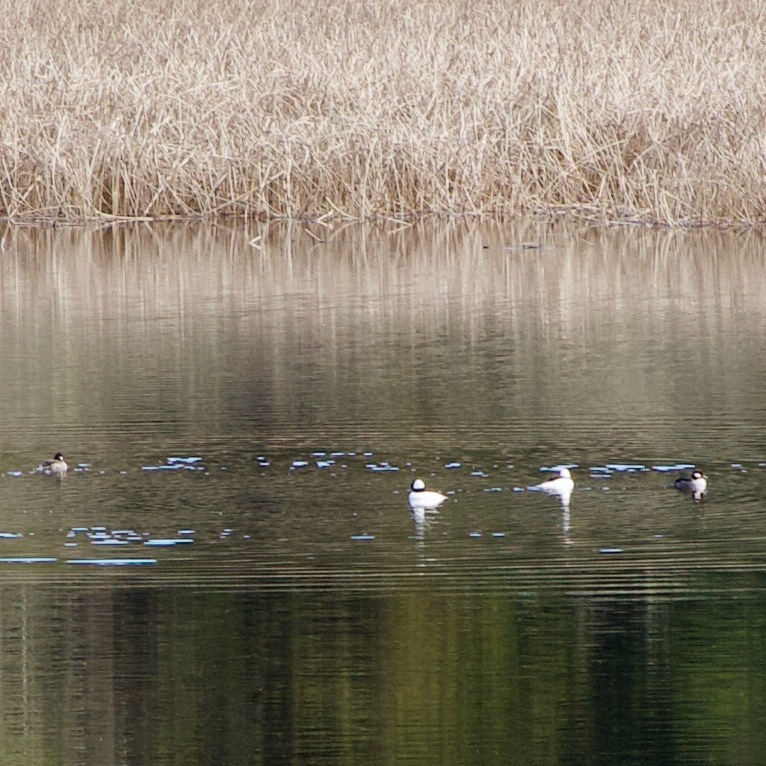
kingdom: Animalia
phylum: Chordata
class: Aves
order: Anseriformes
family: Anatidae
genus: Bucephala
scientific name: Bucephala albeola
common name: Bufflehead
